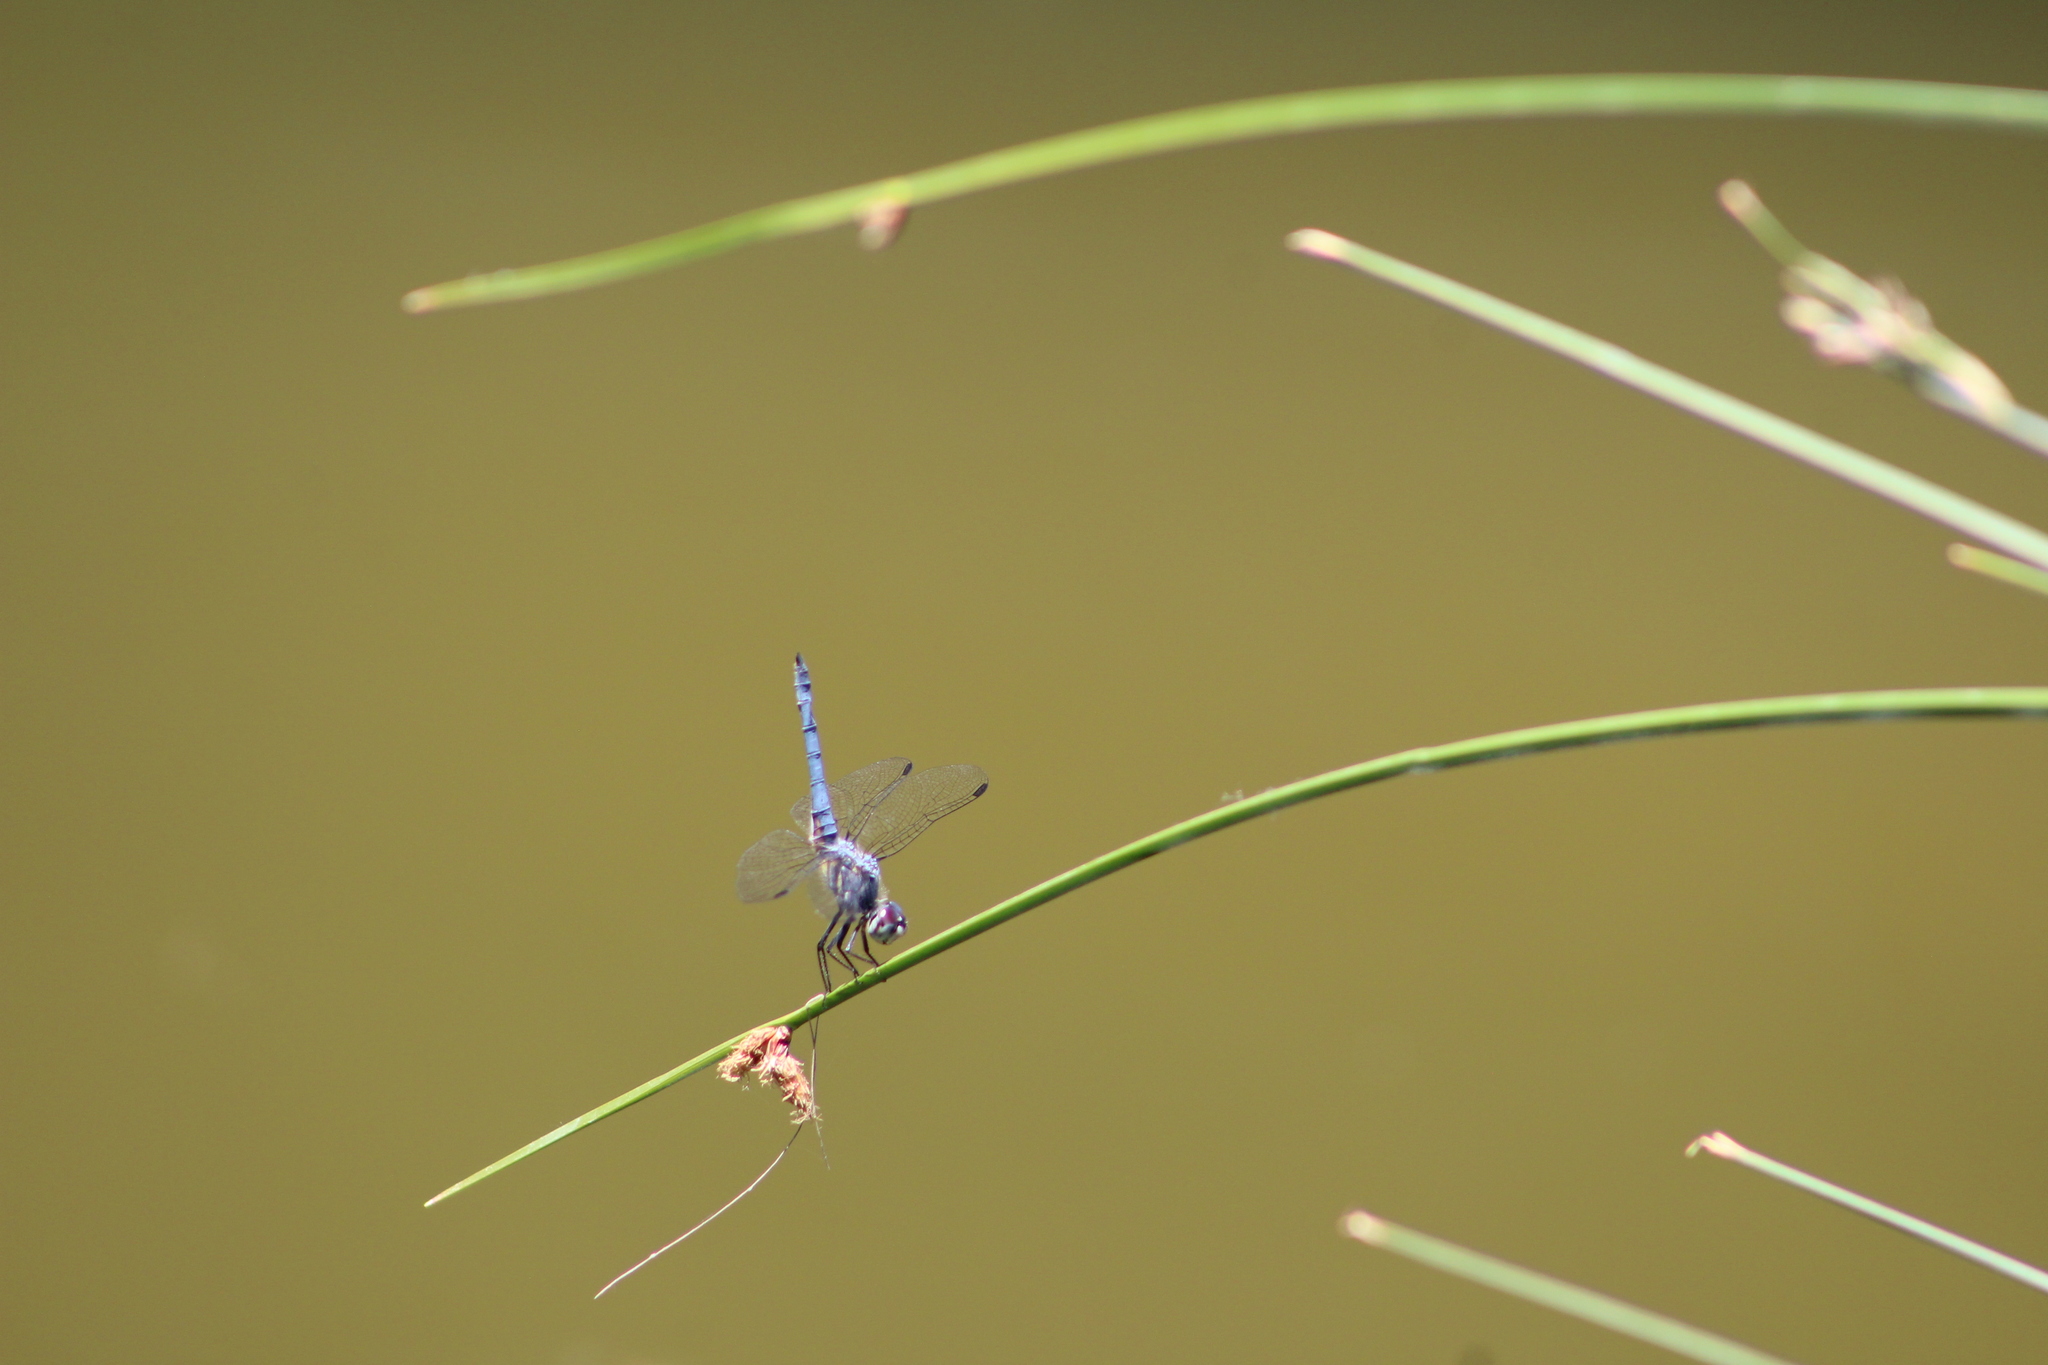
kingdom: Animalia
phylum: Arthropoda
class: Insecta
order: Odonata
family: Libellulidae
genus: Pachydiplax
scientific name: Pachydiplax longipennis
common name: Blue dasher
